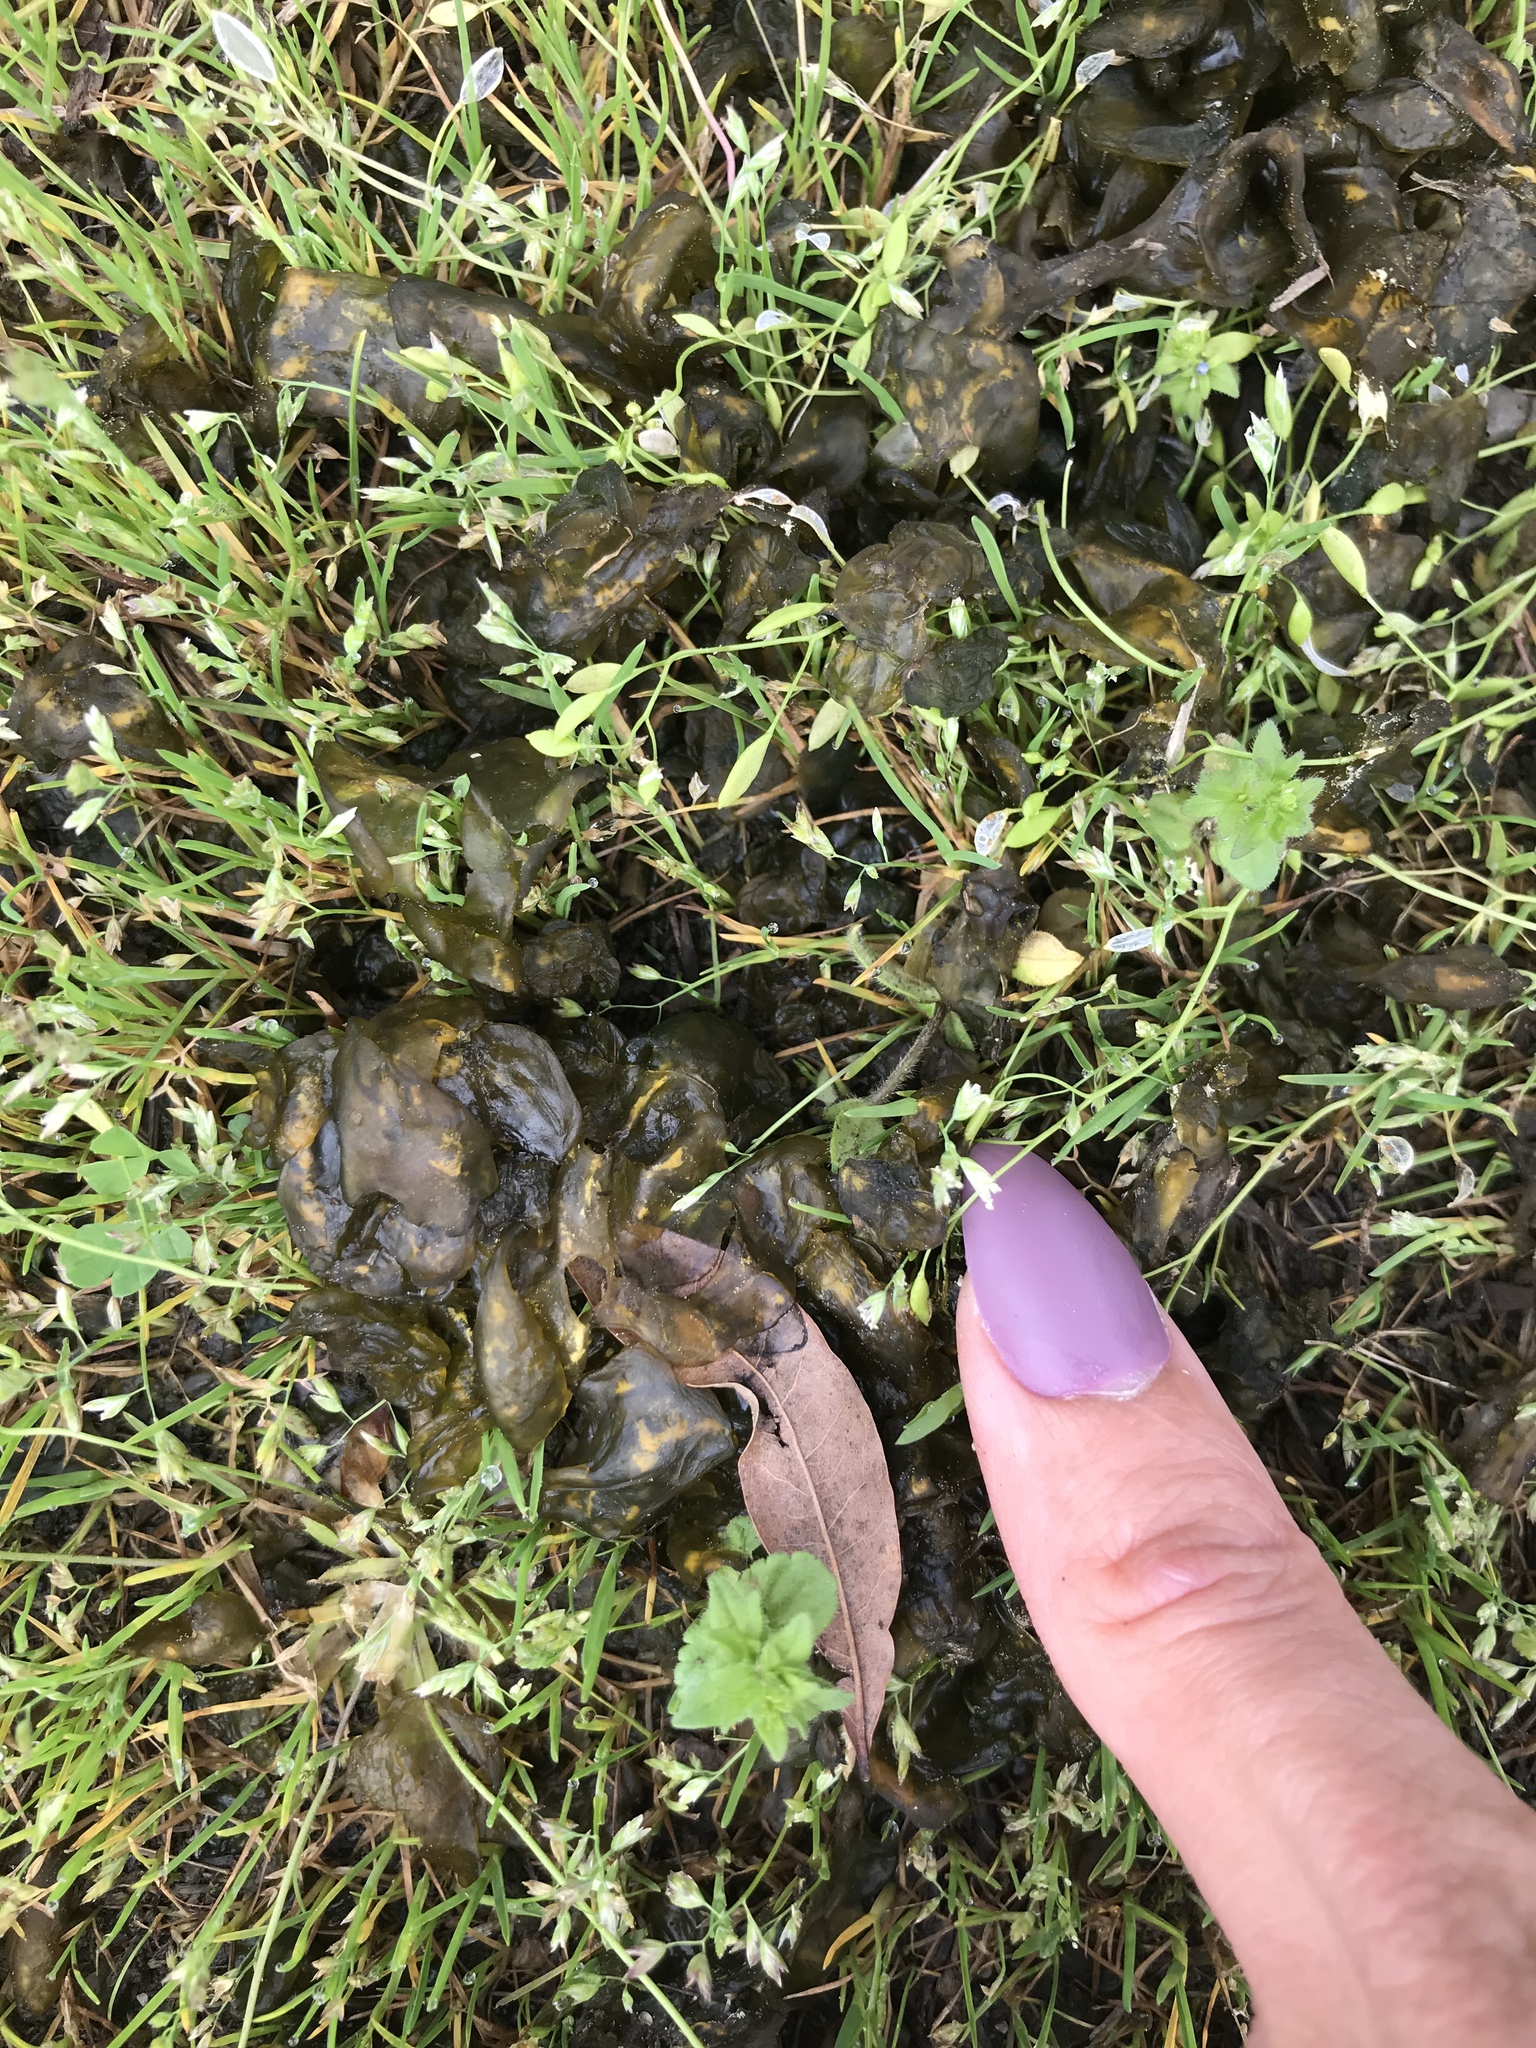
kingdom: Bacteria
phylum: Cyanobacteria
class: Cyanobacteriia
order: Cyanobacteriales
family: Nostocaceae
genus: Nostoc
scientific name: Nostoc commune
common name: Star jelly
